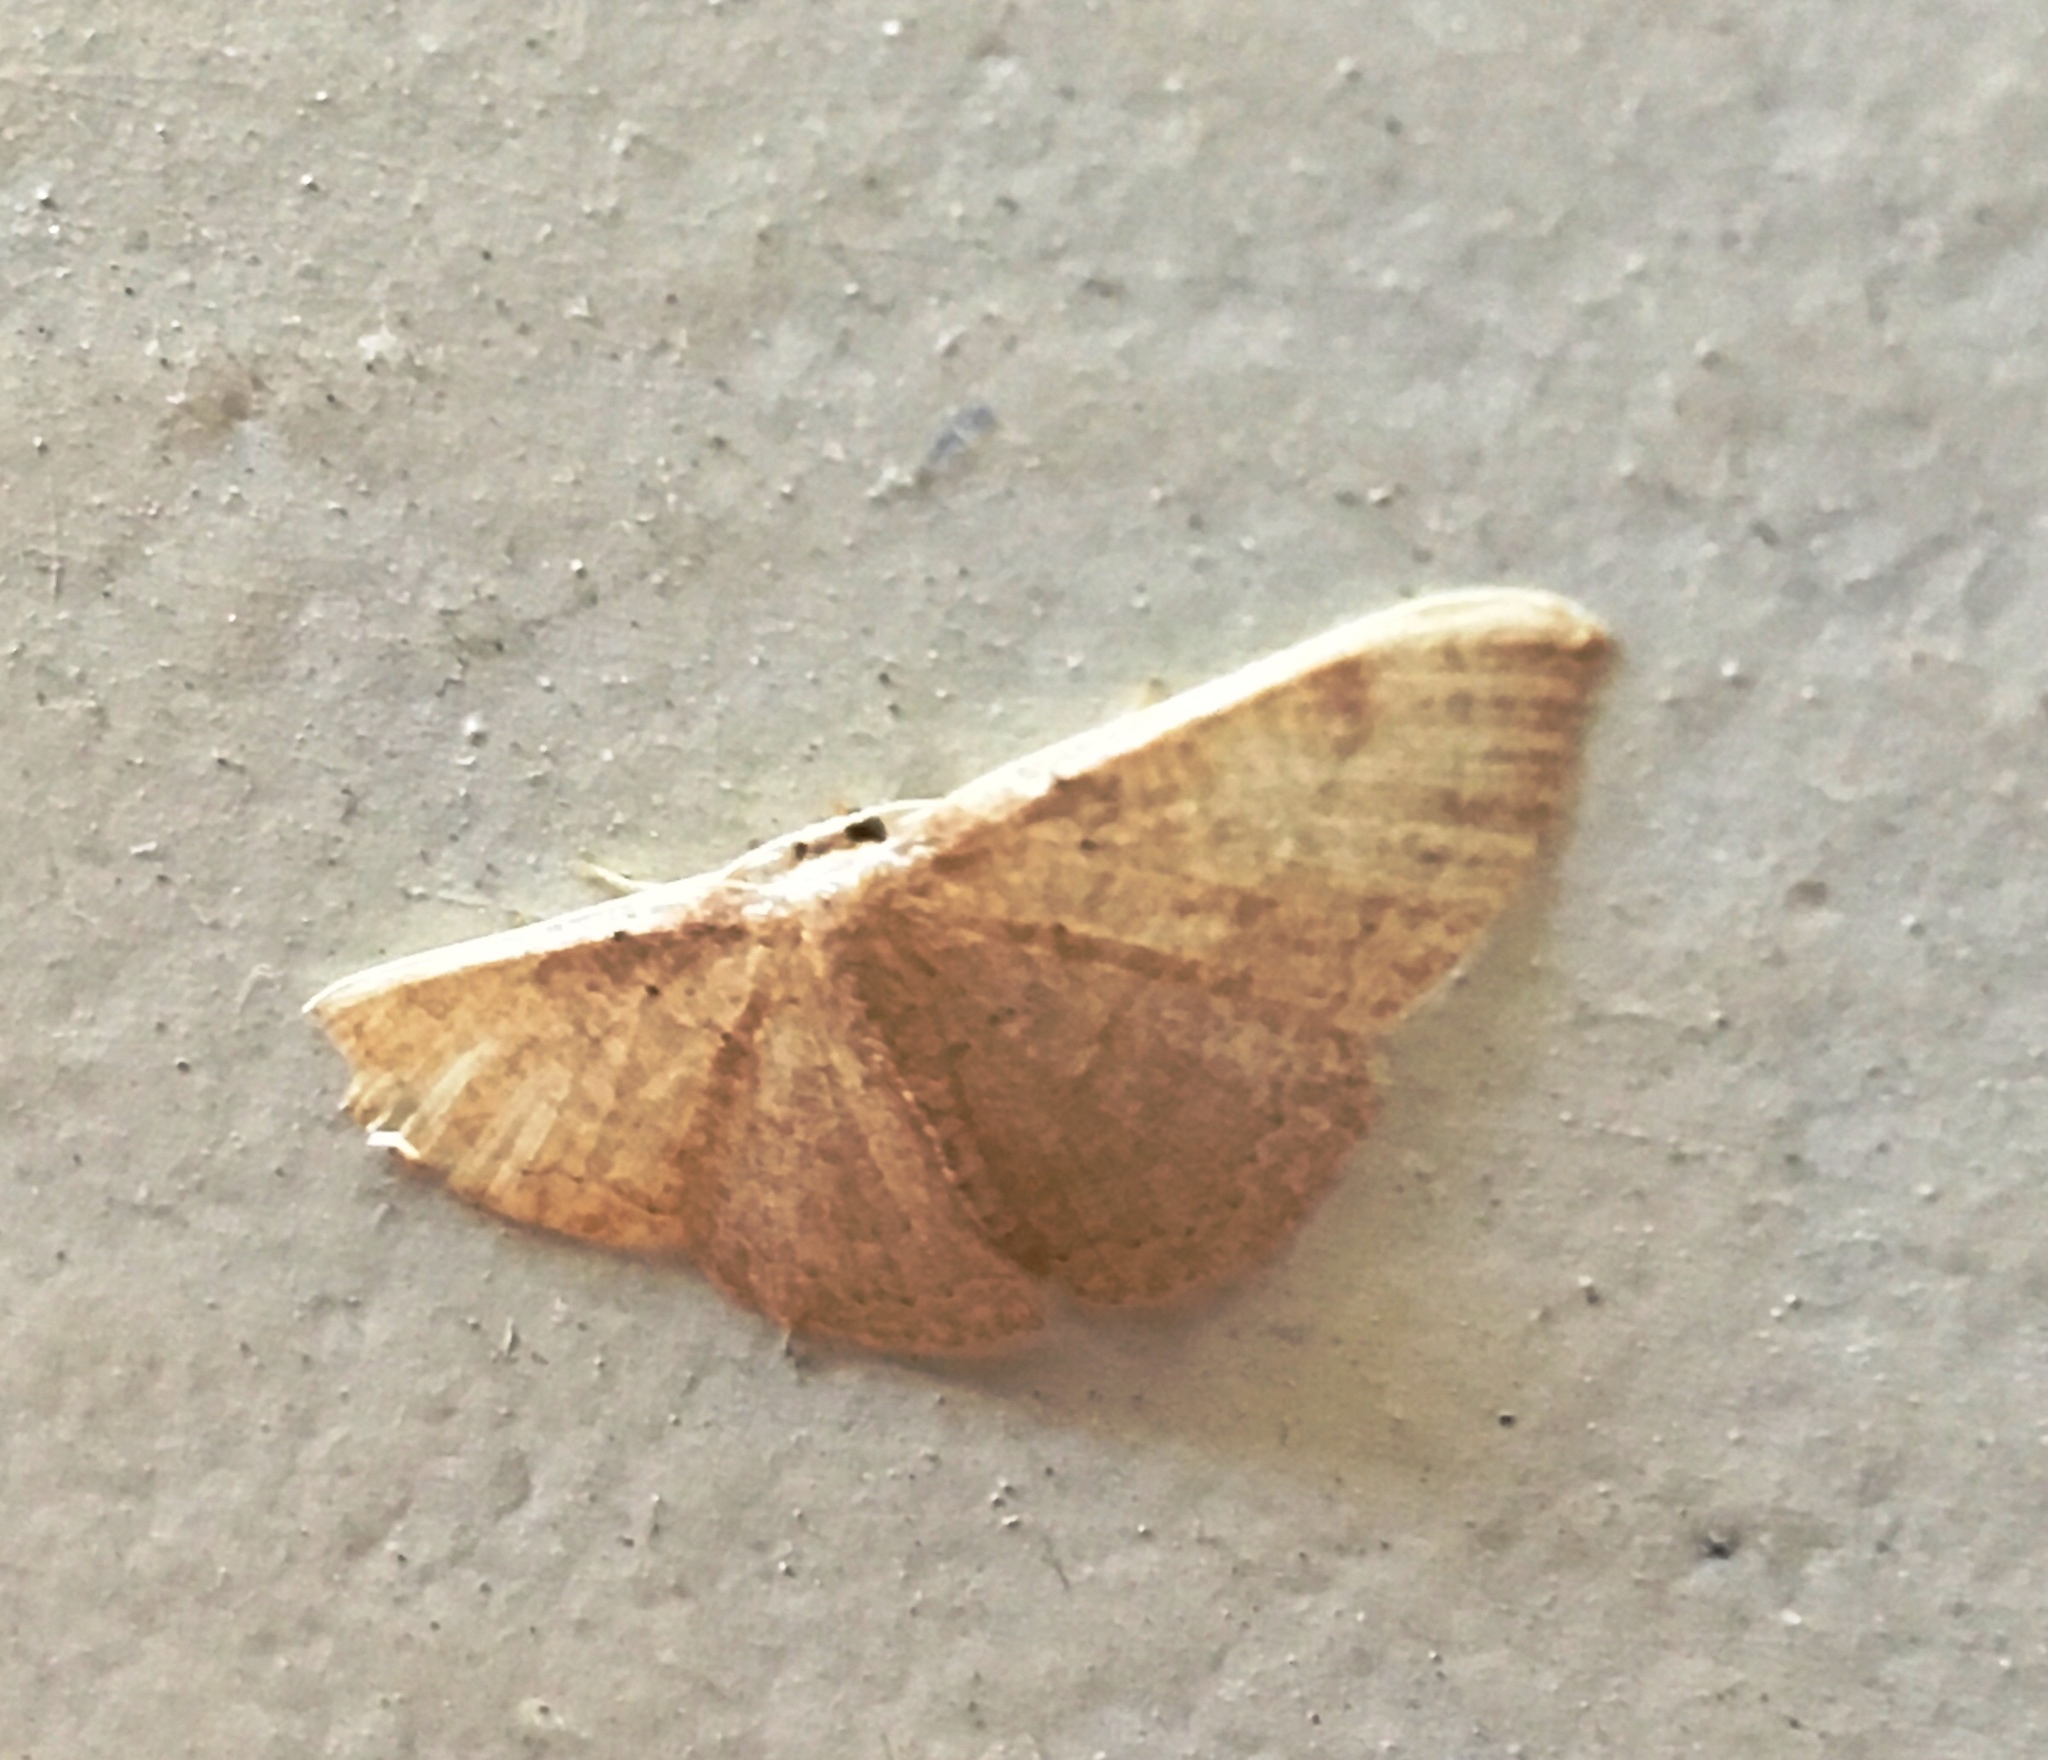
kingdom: Animalia
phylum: Arthropoda
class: Insecta
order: Lepidoptera
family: Geometridae
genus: Pleuroprucha
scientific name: Pleuroprucha insulsaria
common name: Common tan wave
